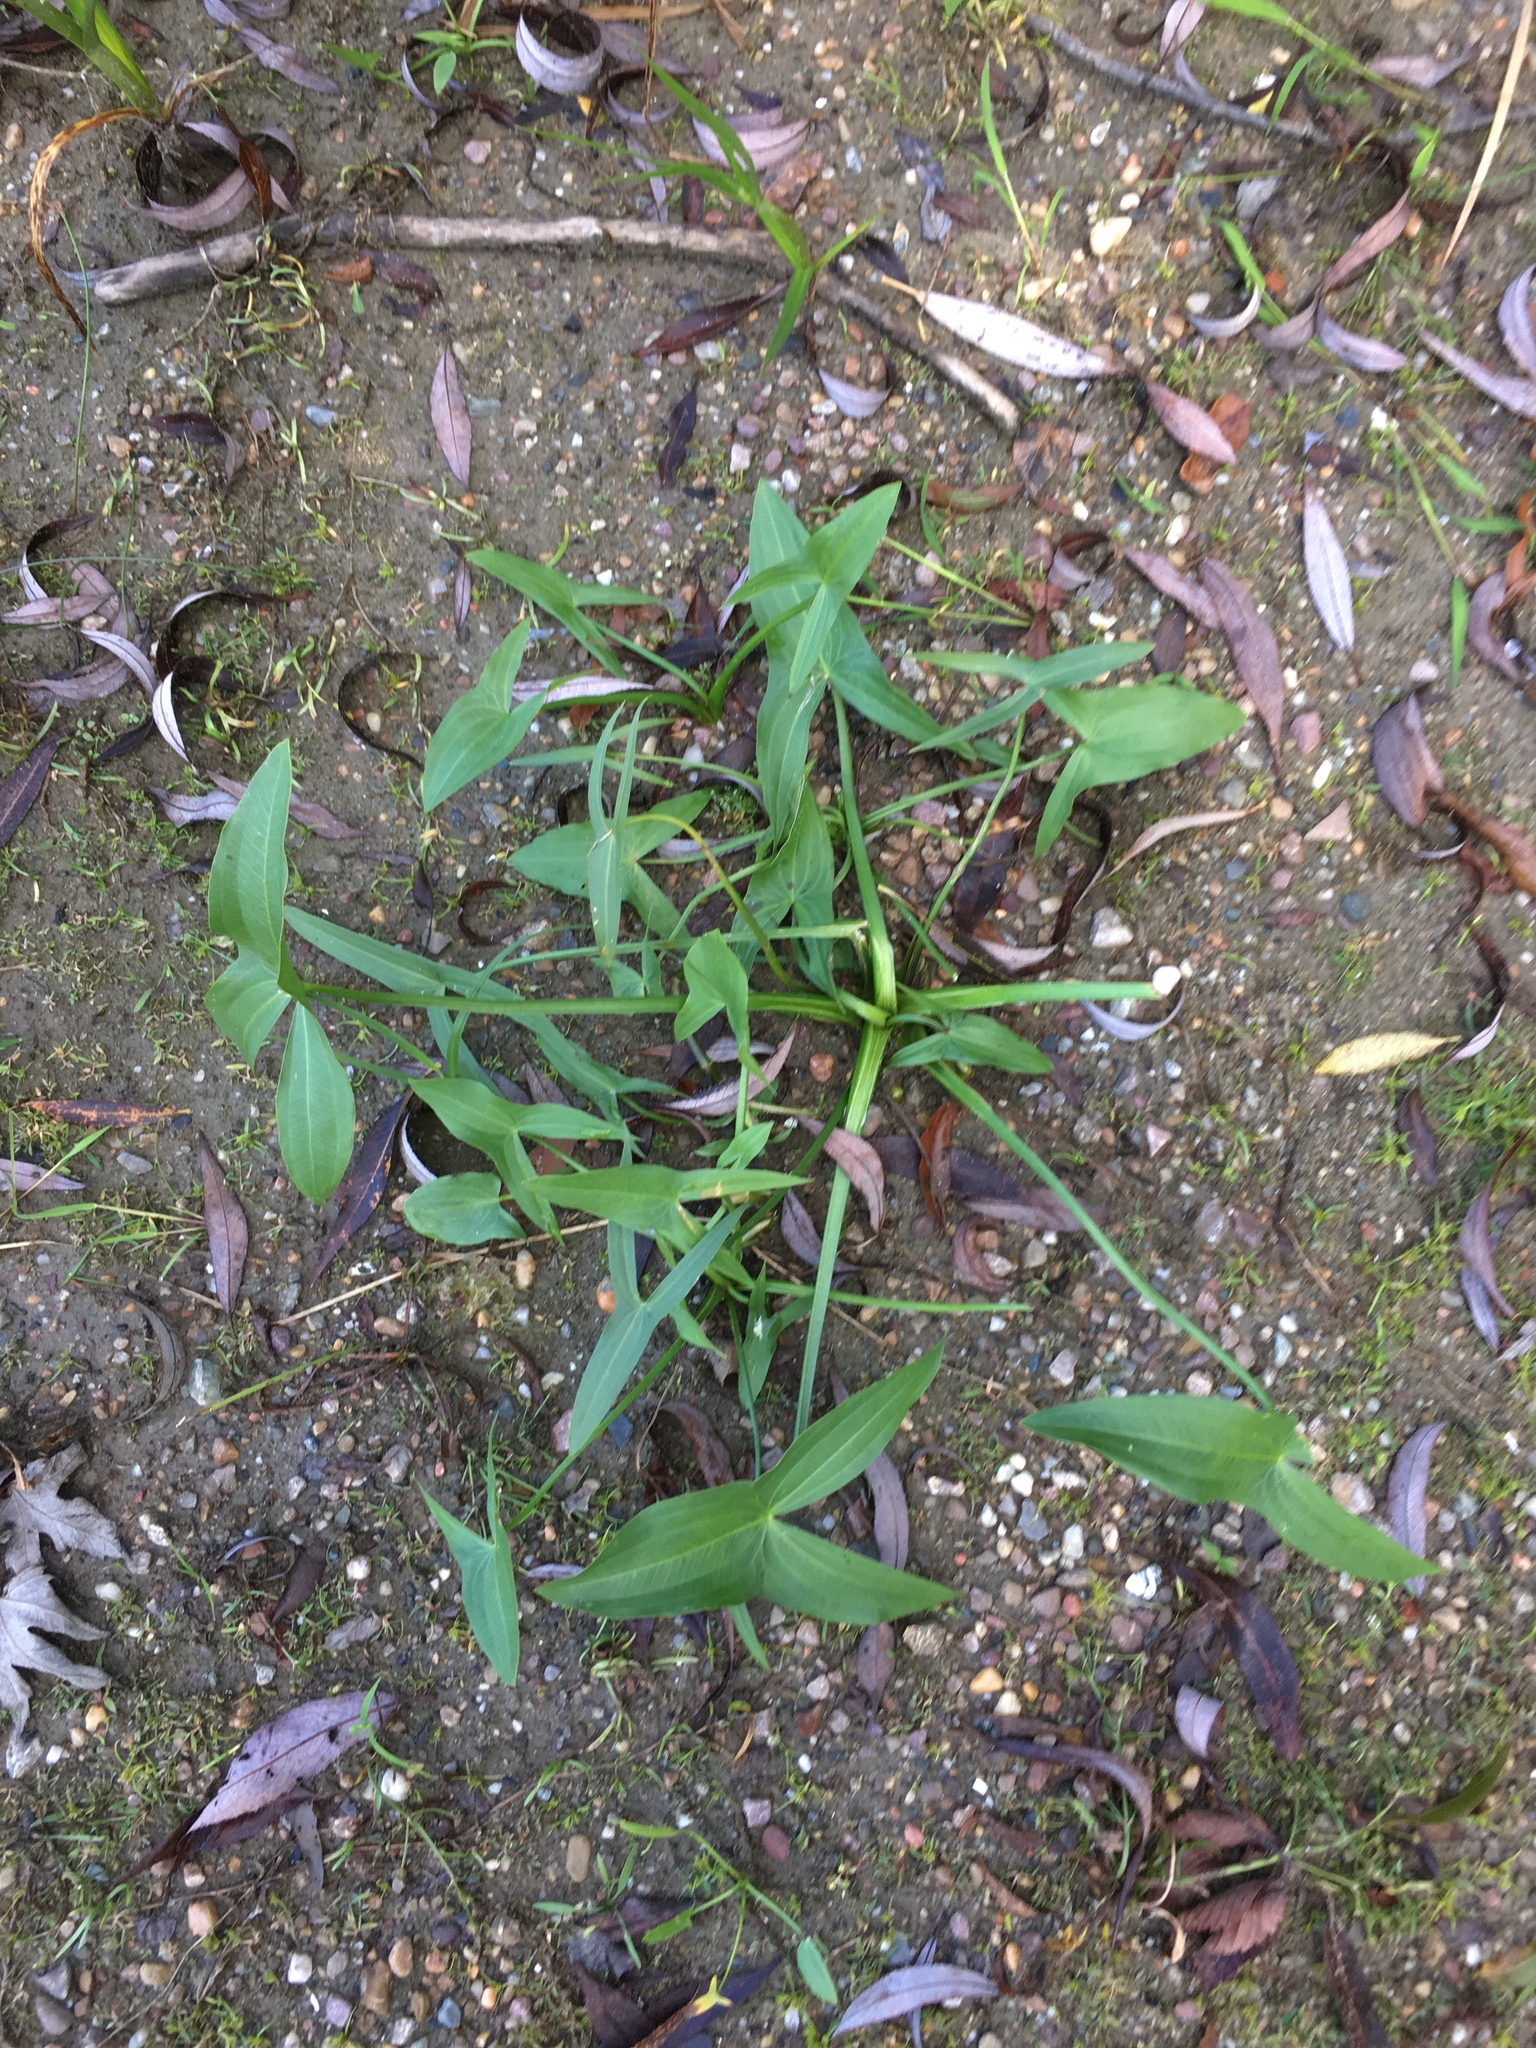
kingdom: Plantae
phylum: Tracheophyta
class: Liliopsida
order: Alismatales
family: Alismataceae
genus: Sagittaria
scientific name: Sagittaria latifolia
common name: Duck-potato
